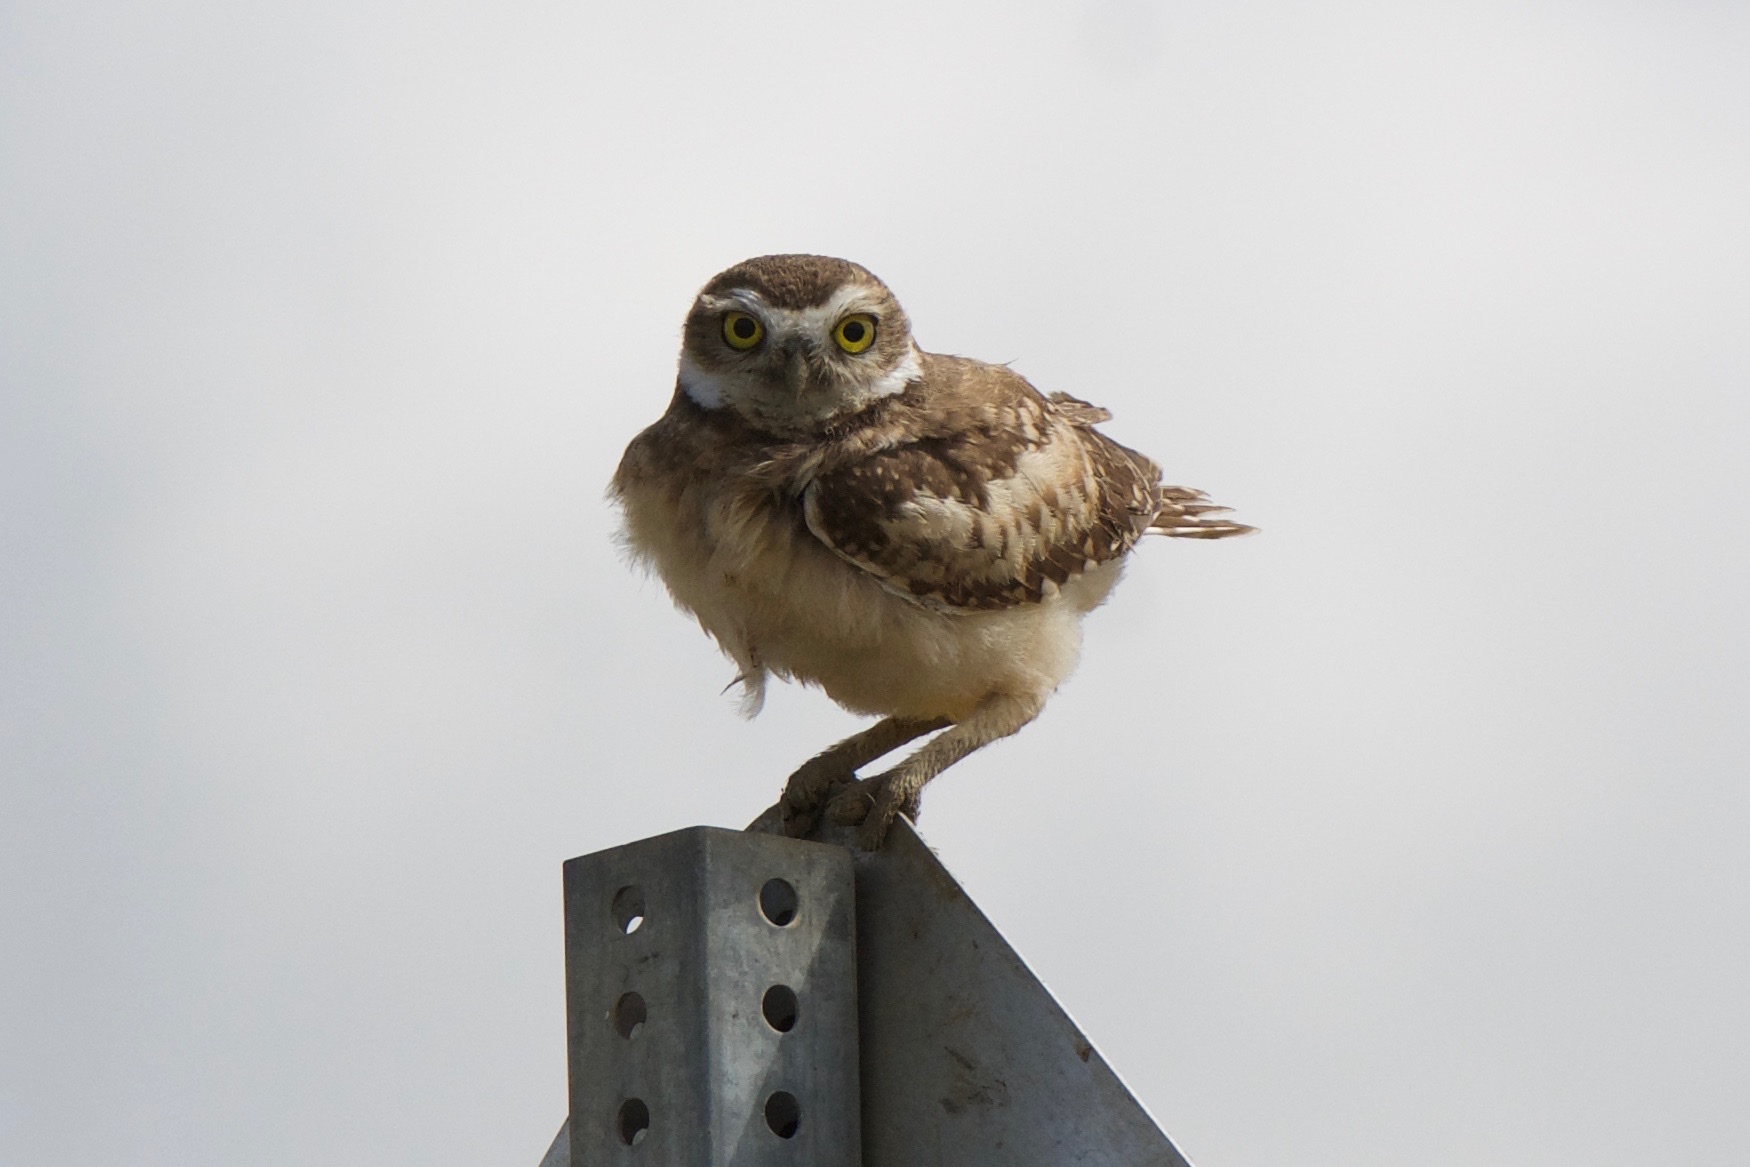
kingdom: Animalia
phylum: Chordata
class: Aves
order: Strigiformes
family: Strigidae
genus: Athene
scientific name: Athene cunicularia
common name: Burrowing owl
